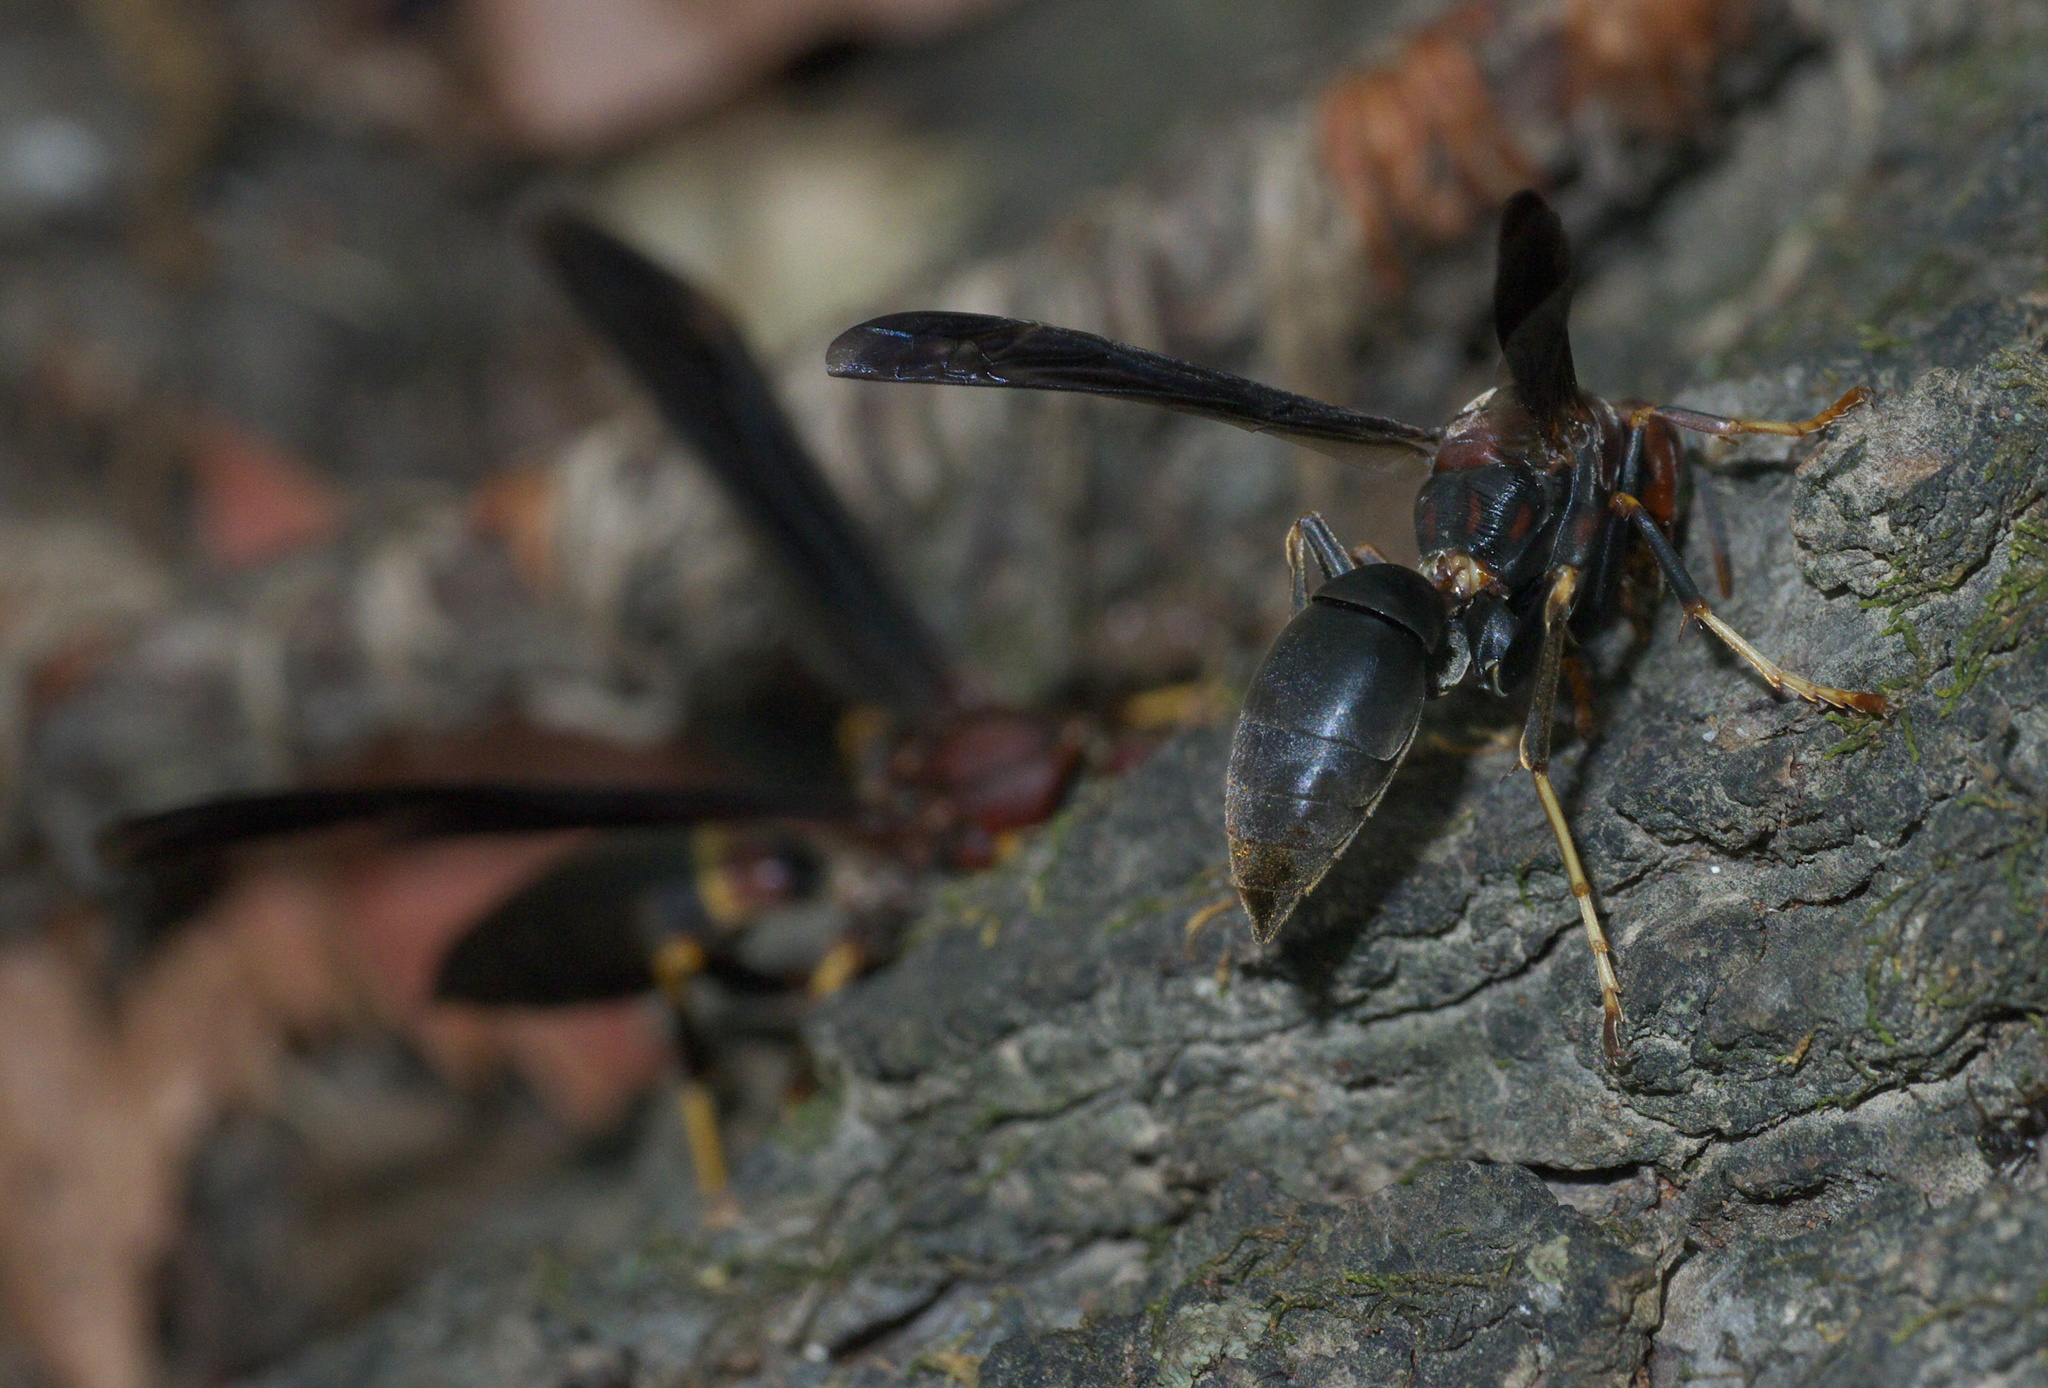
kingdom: Animalia
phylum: Arthropoda
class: Insecta
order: Hymenoptera
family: Eumenidae
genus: Polistes
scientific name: Polistes metricus
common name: Metric paper wasp
